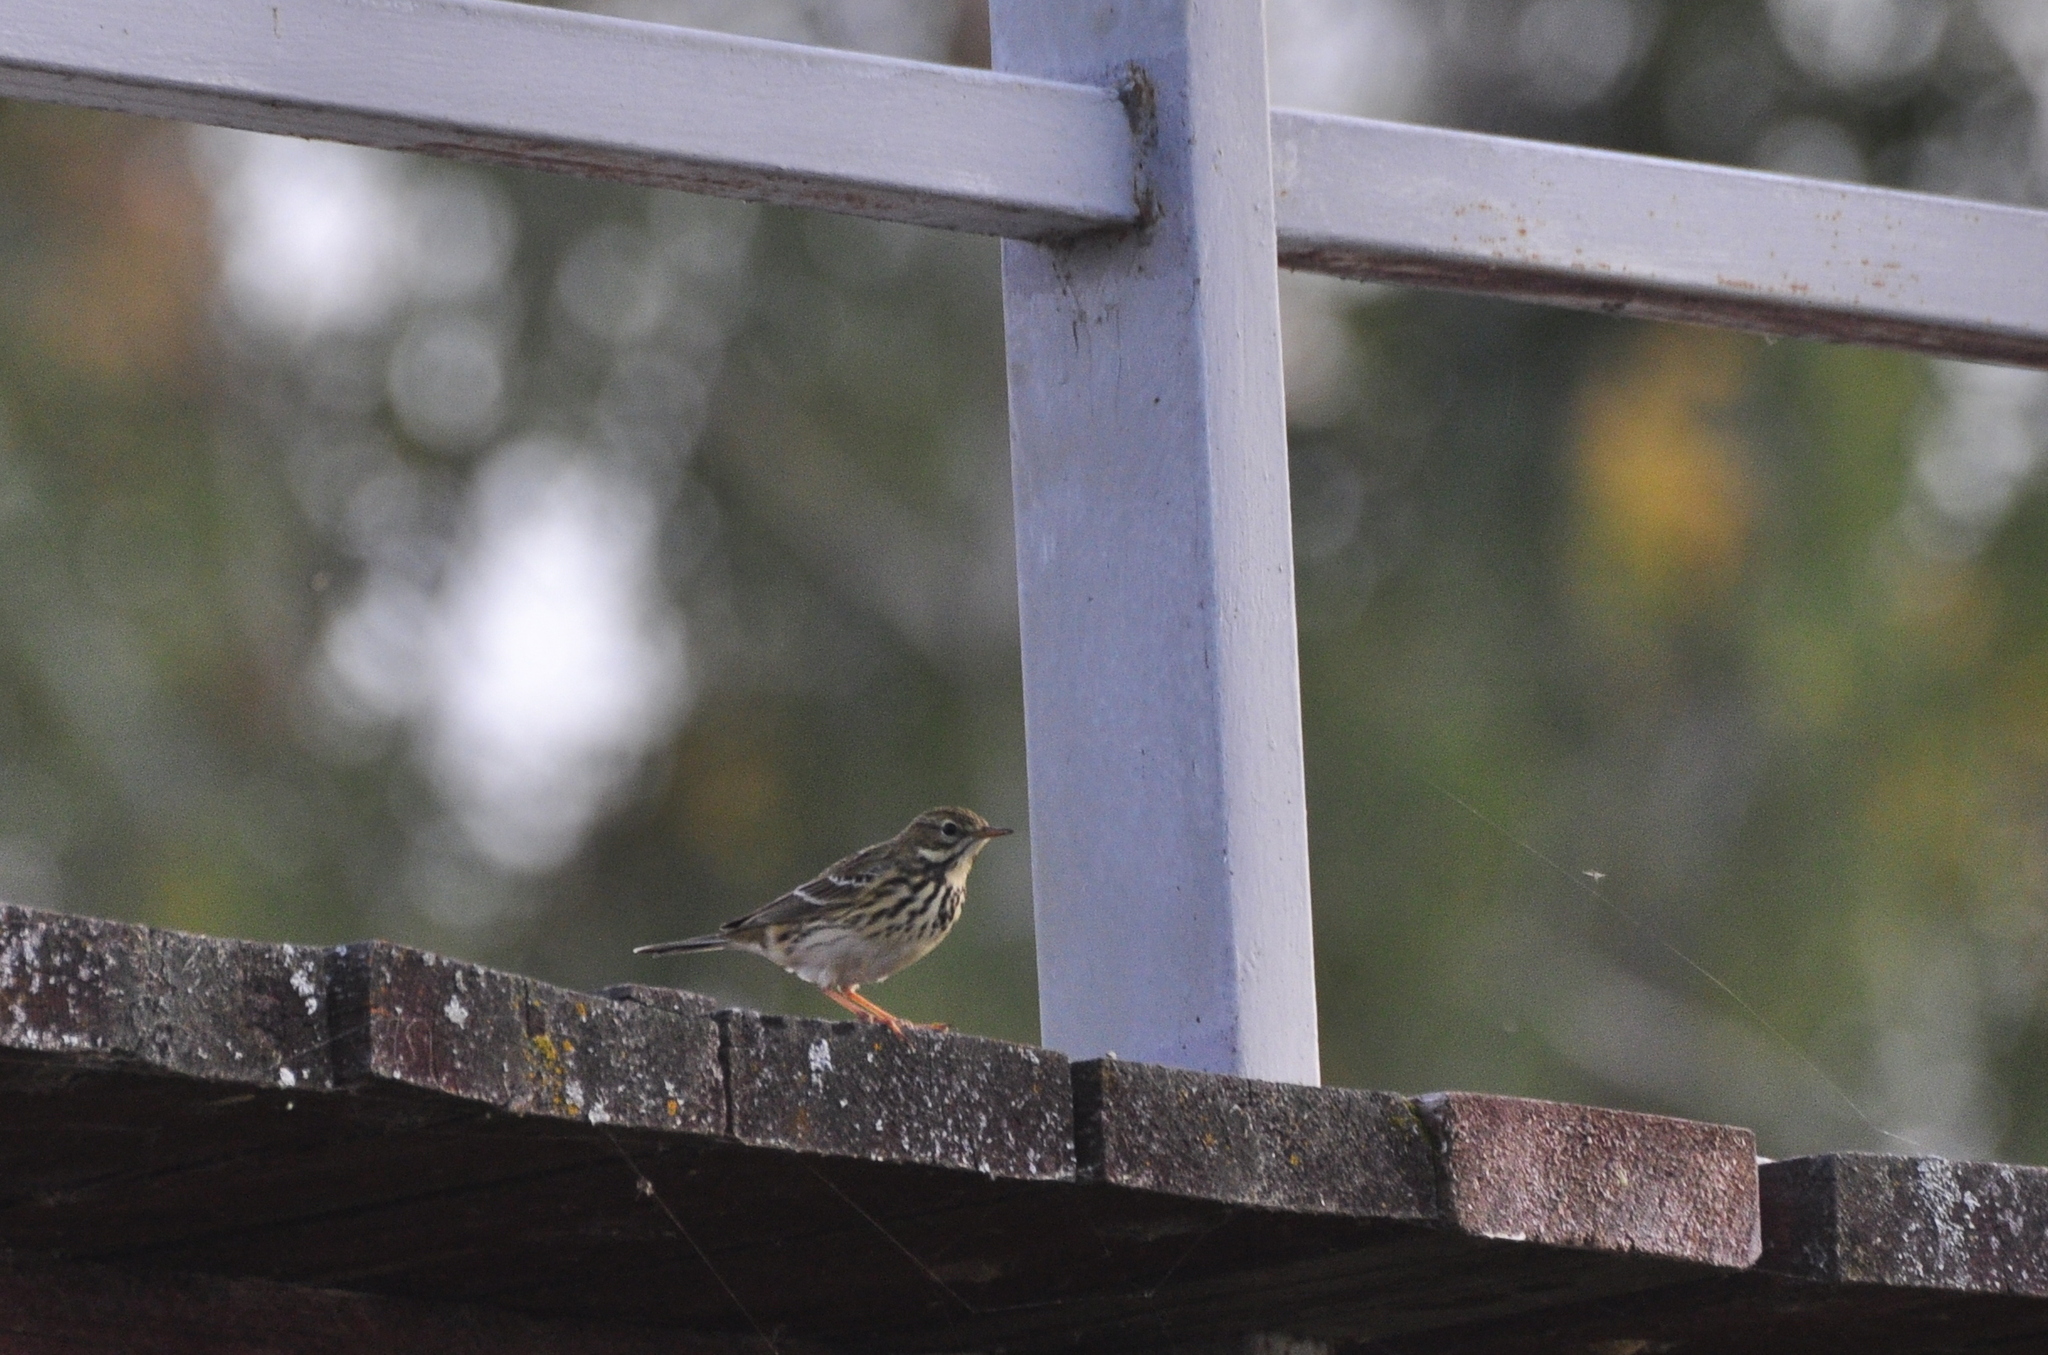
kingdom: Animalia
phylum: Chordata
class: Aves
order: Passeriformes
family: Motacillidae
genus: Anthus
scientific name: Anthus pratensis
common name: Meadow pipit
